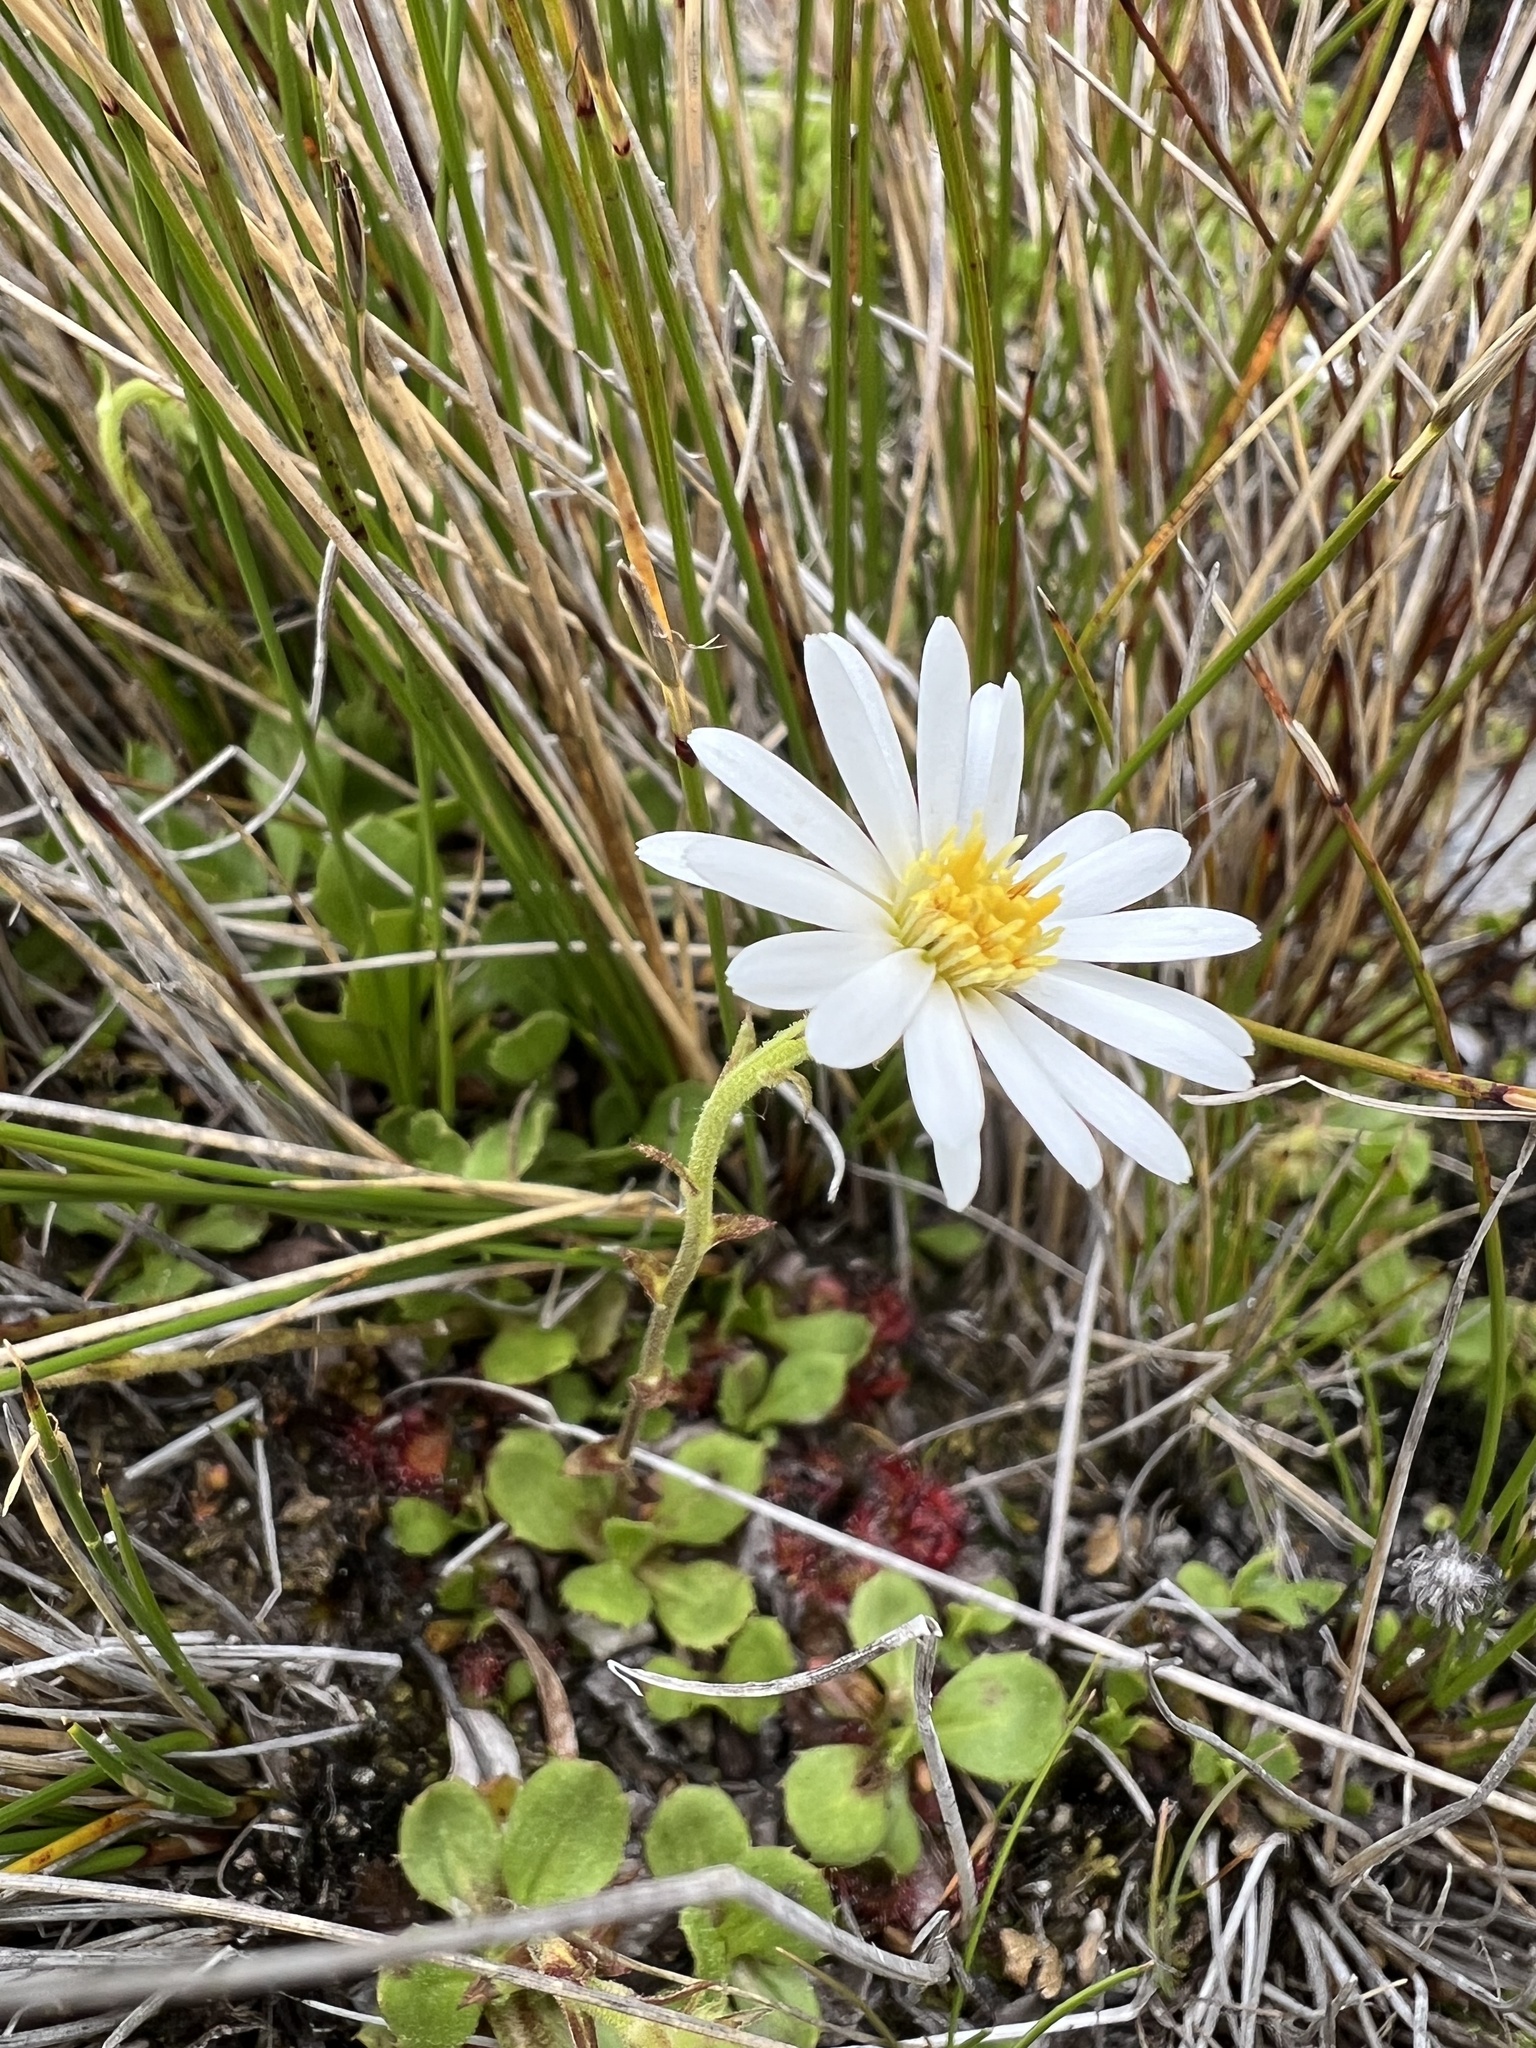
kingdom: Plantae
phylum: Tracheophyta
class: Magnoliopsida
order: Asterales
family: Asteraceae
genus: Celmisia
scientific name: Celmisia glandulosa
